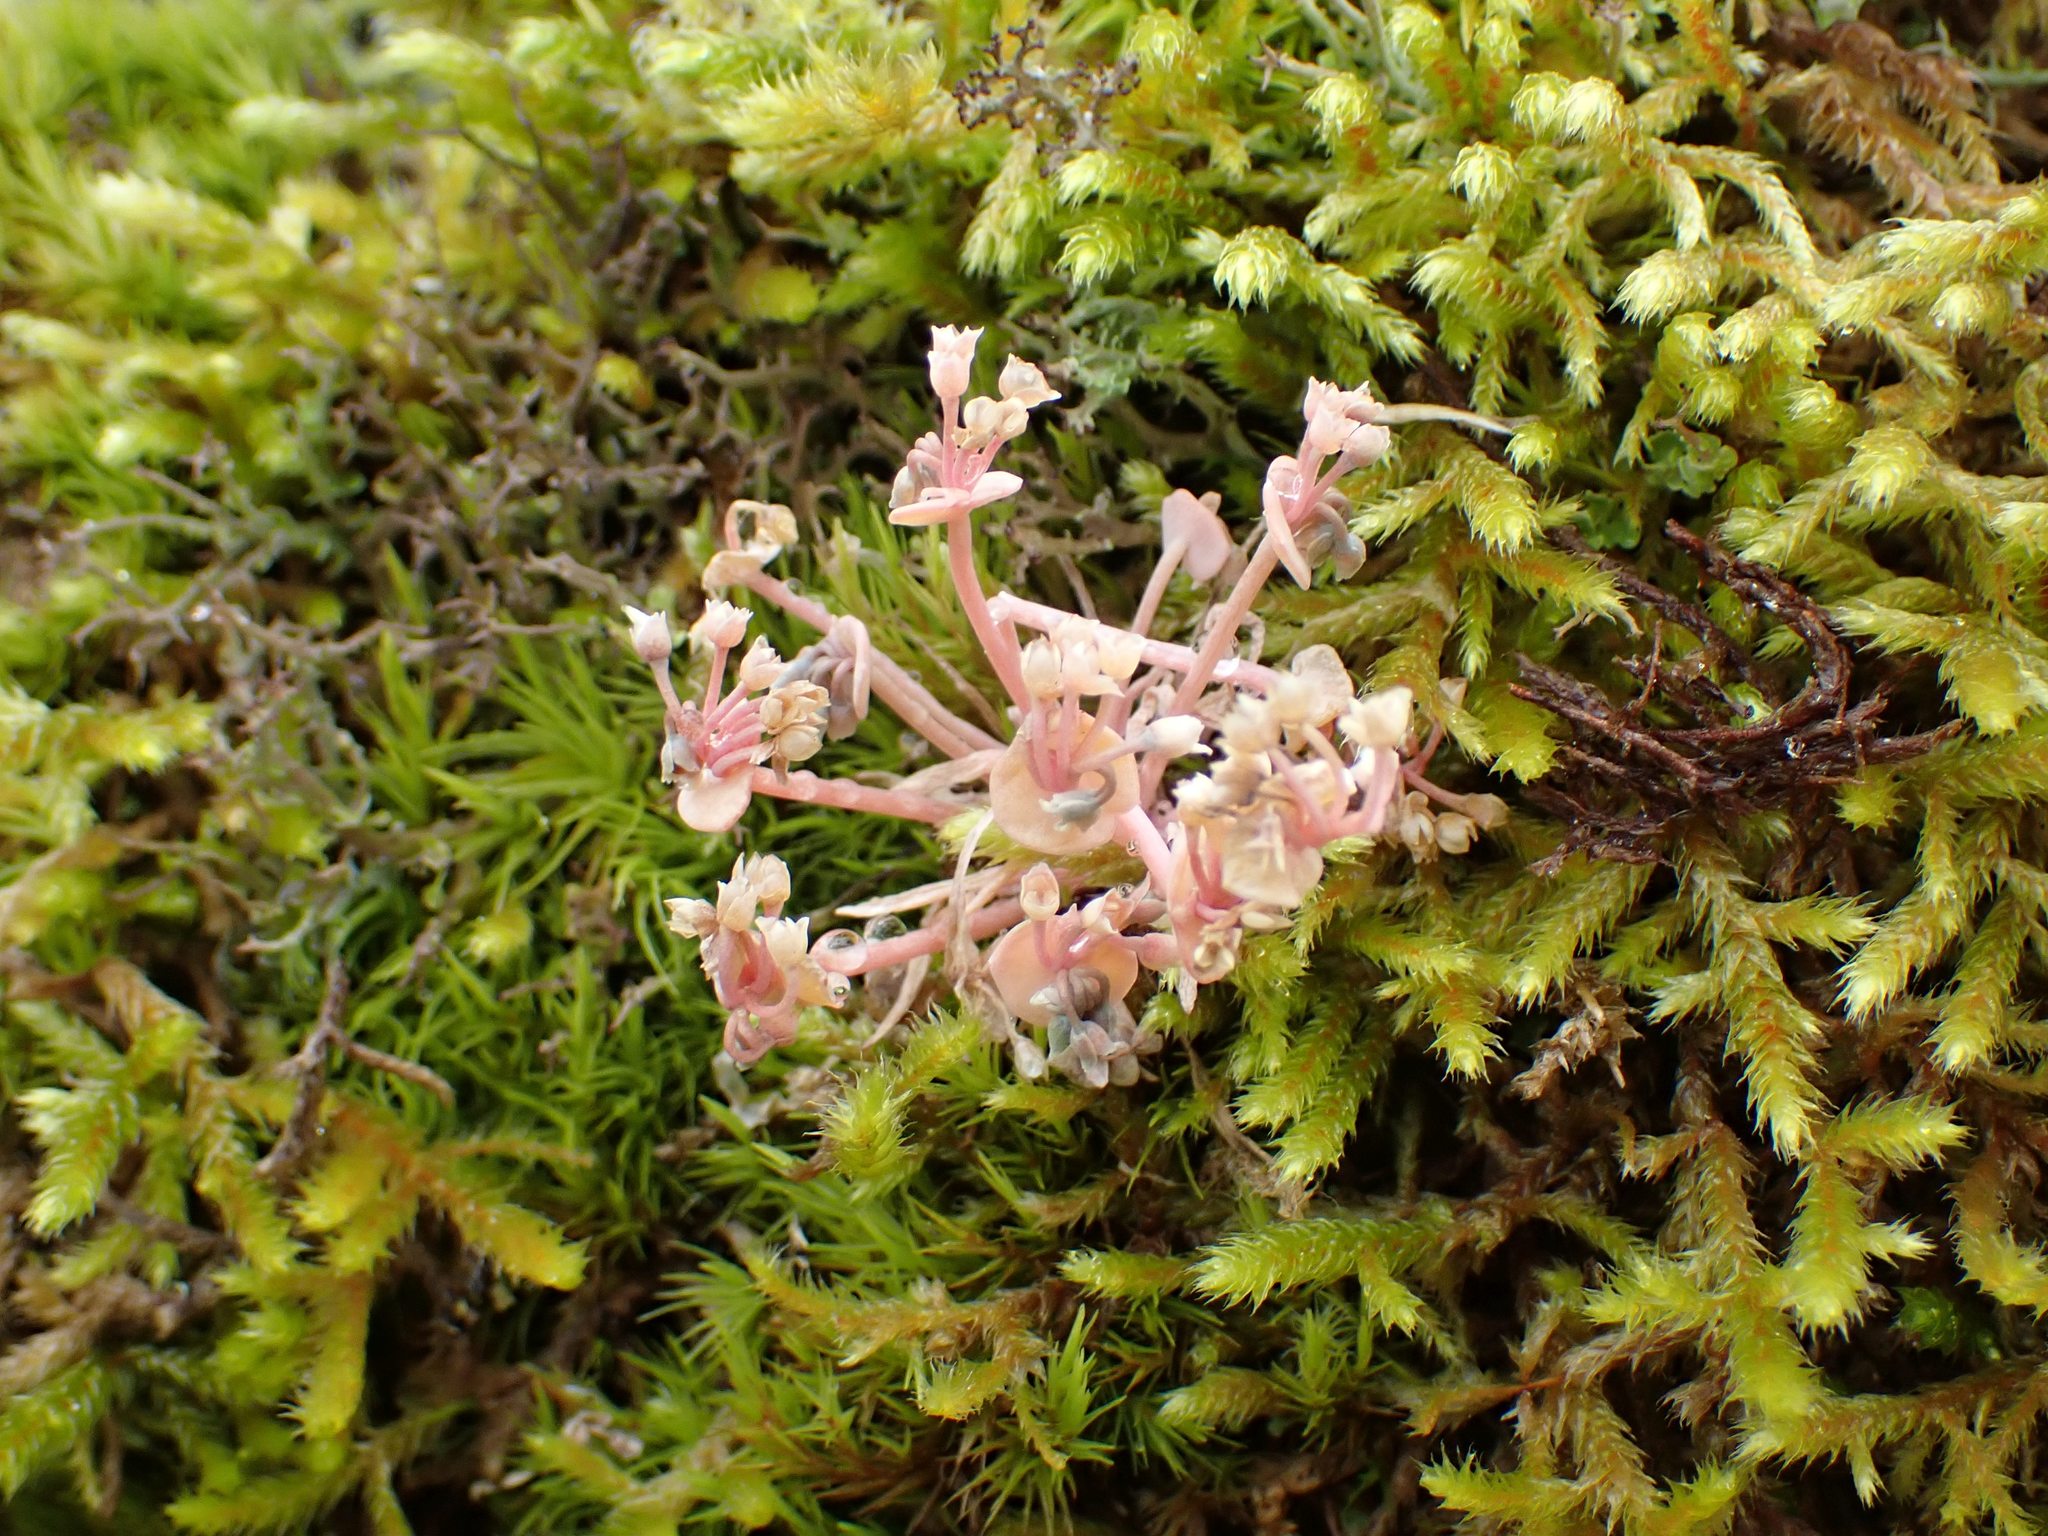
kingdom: Plantae
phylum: Tracheophyta
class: Magnoliopsida
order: Caryophyllales
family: Montiaceae
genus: Claytonia
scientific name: Claytonia exigua
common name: Pale spring beauty
